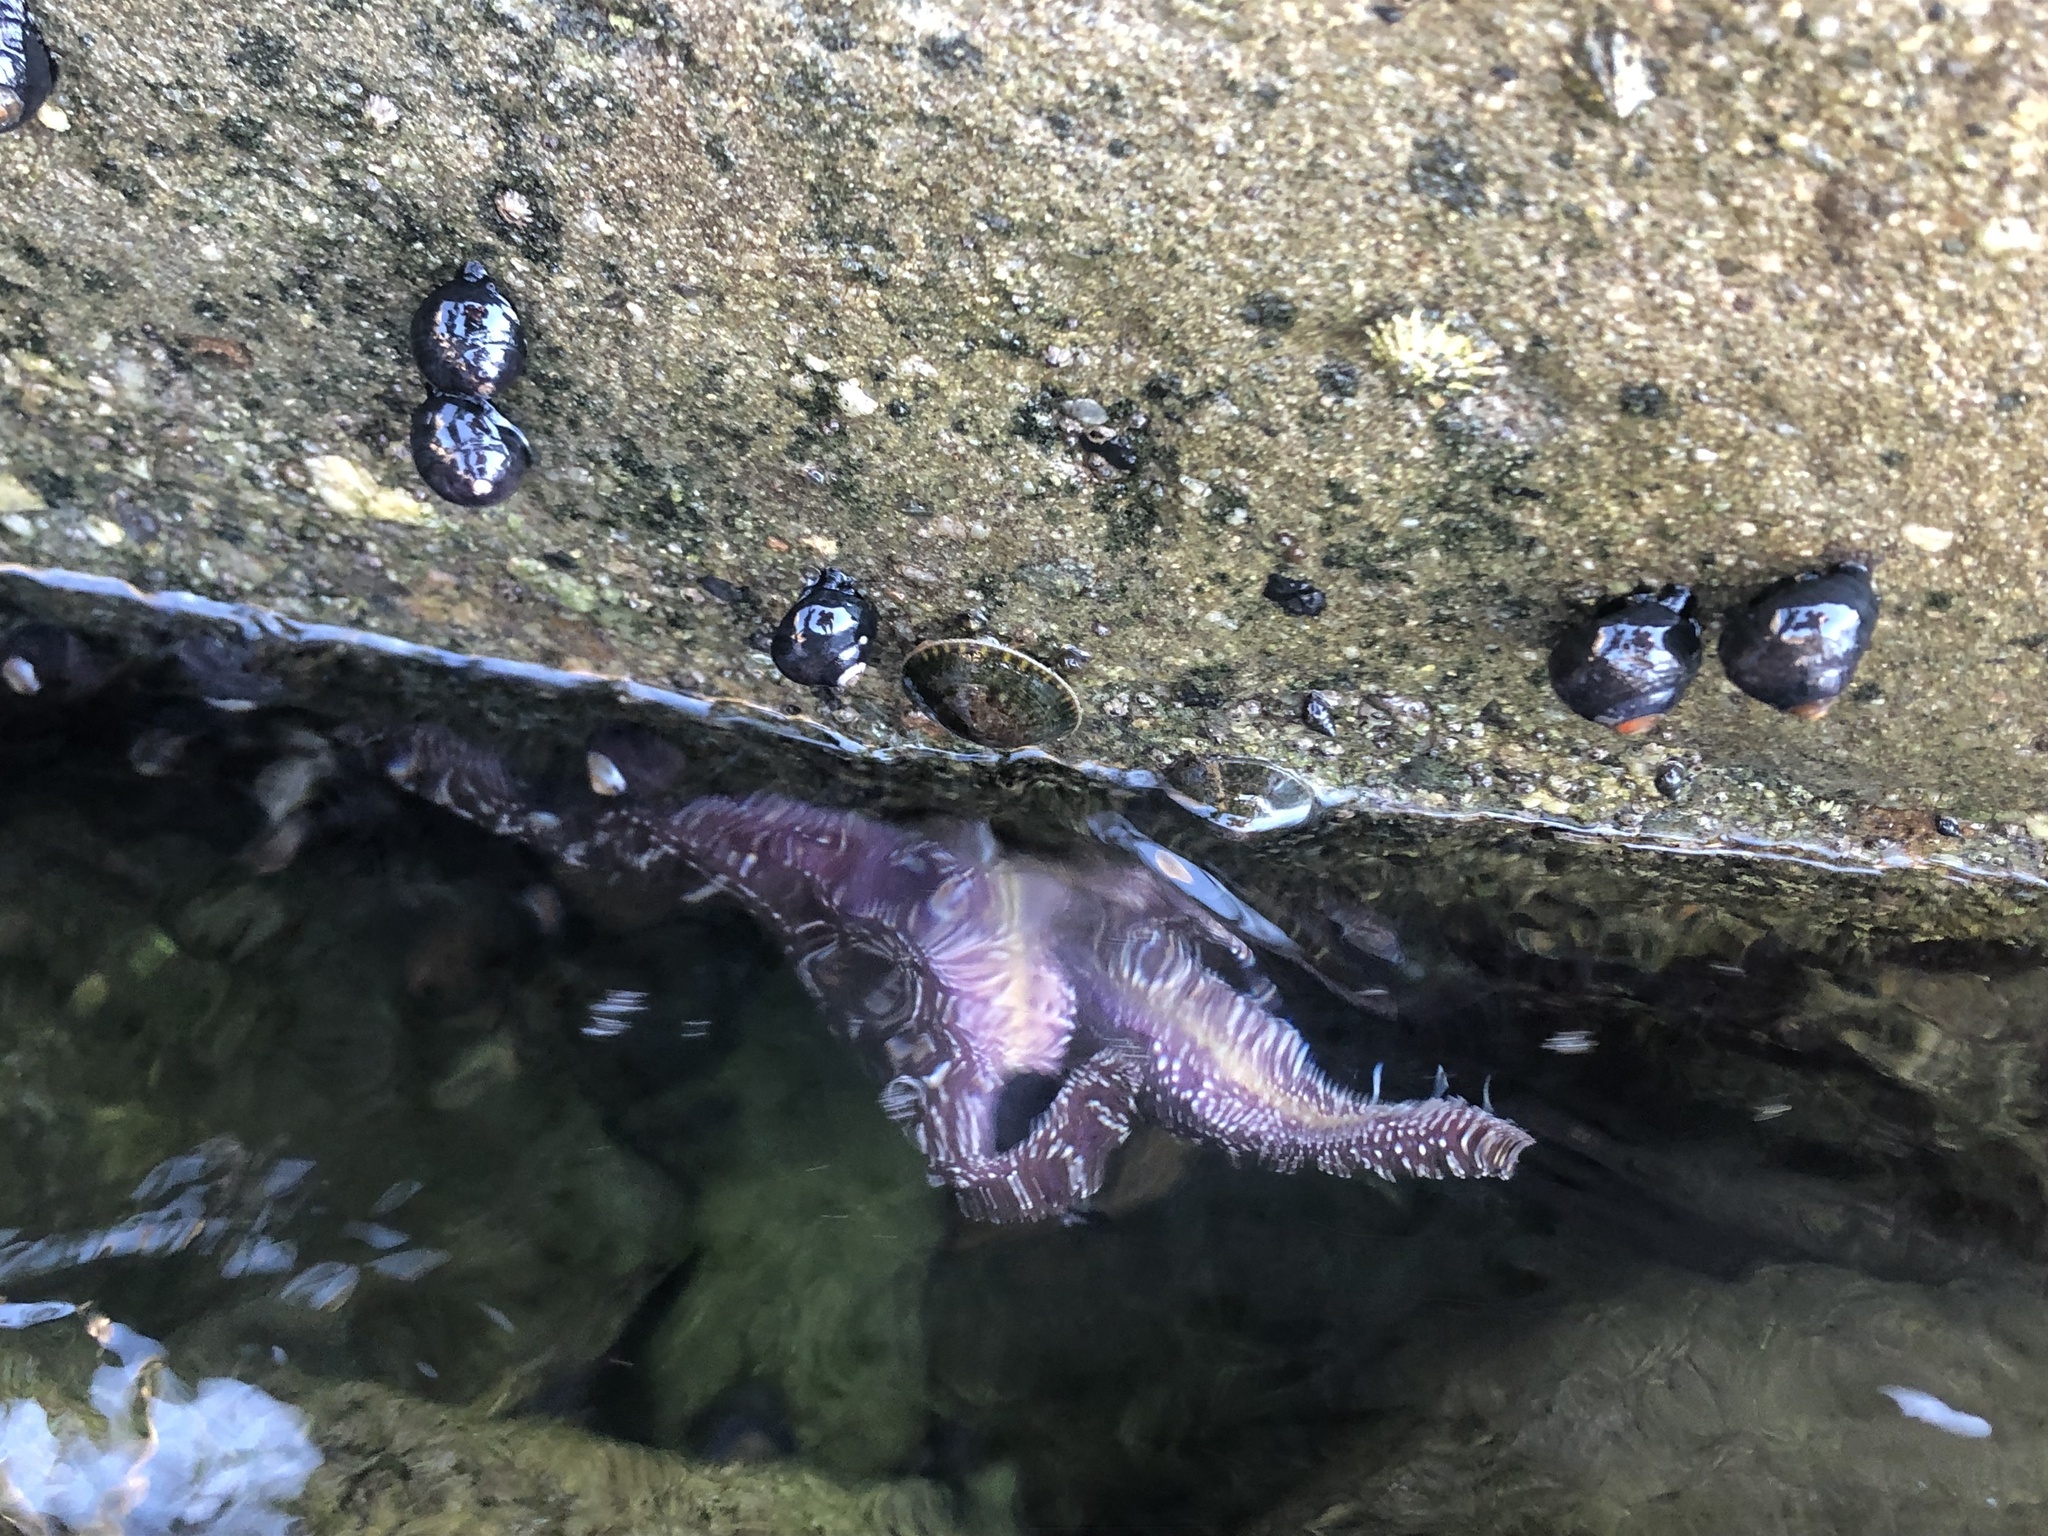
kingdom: Animalia
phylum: Echinodermata
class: Asteroidea
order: Forcipulatida
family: Asteriidae
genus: Pisaster
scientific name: Pisaster ochraceus
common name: Ochre stars
